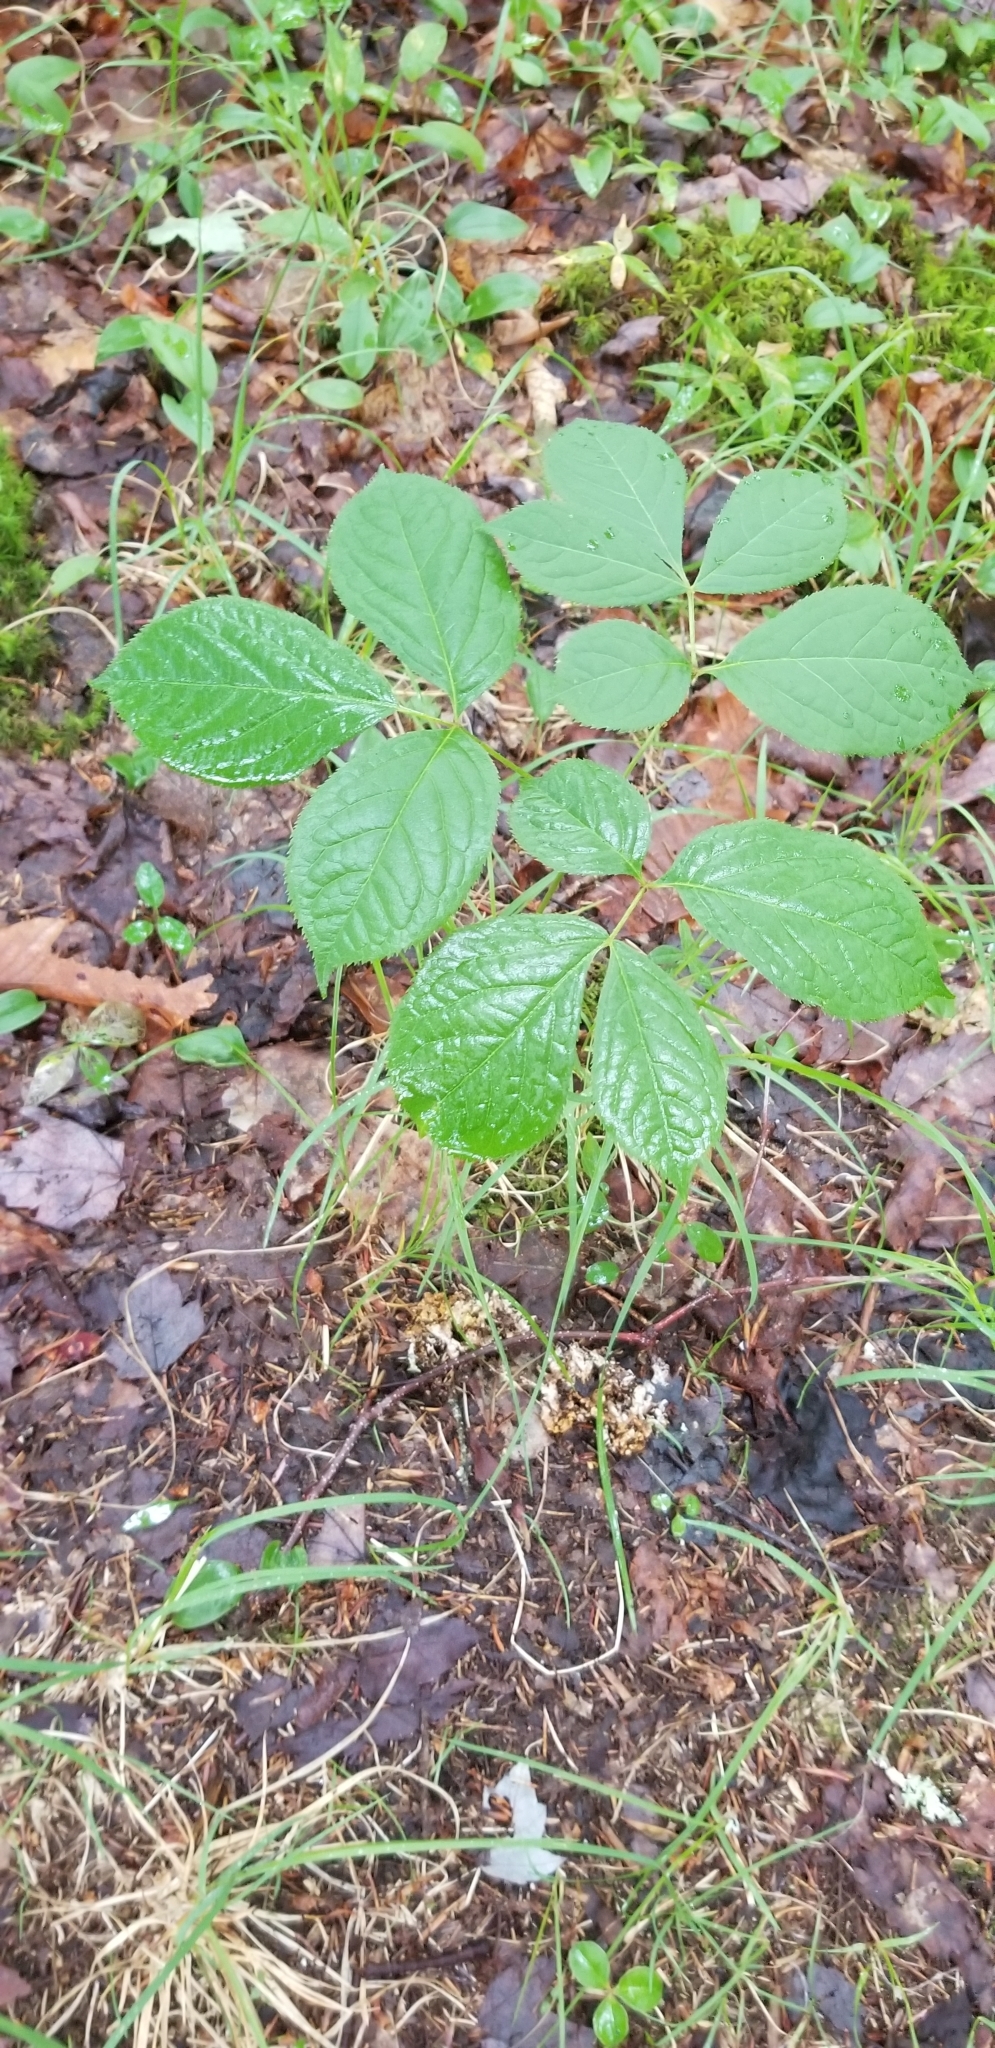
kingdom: Plantae
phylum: Tracheophyta
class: Magnoliopsida
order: Apiales
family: Araliaceae
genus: Aralia
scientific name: Aralia nudicaulis
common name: Wild sarsaparilla
